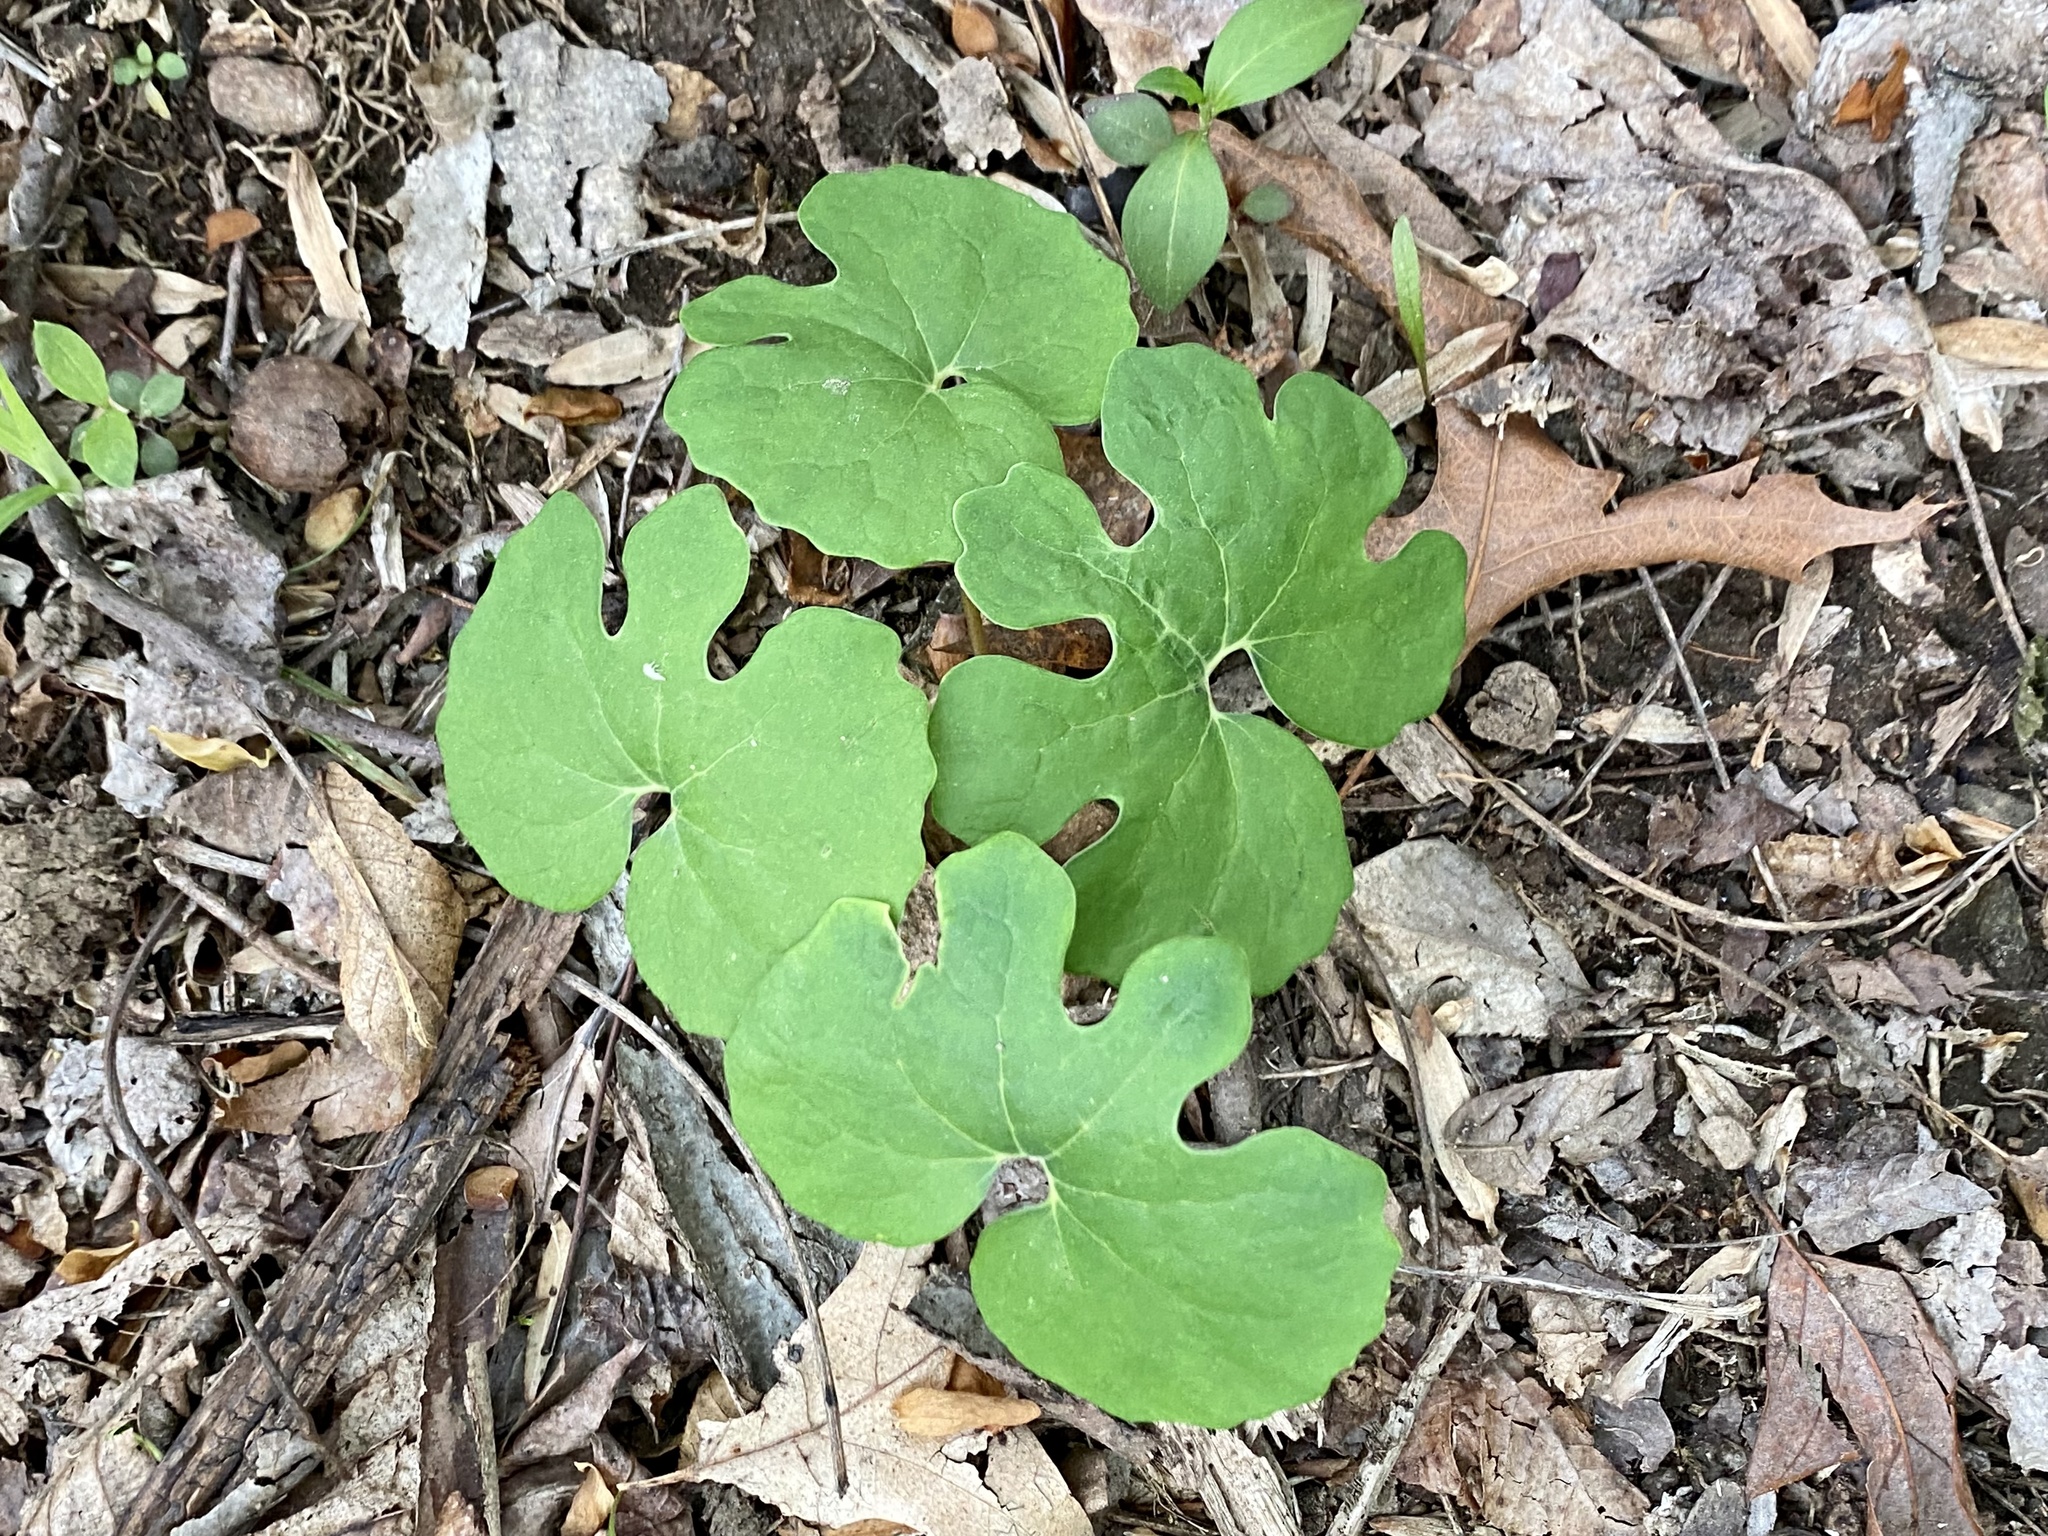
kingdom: Plantae
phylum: Tracheophyta
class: Magnoliopsida
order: Ranunculales
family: Papaveraceae
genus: Sanguinaria
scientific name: Sanguinaria canadensis
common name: Bloodroot
